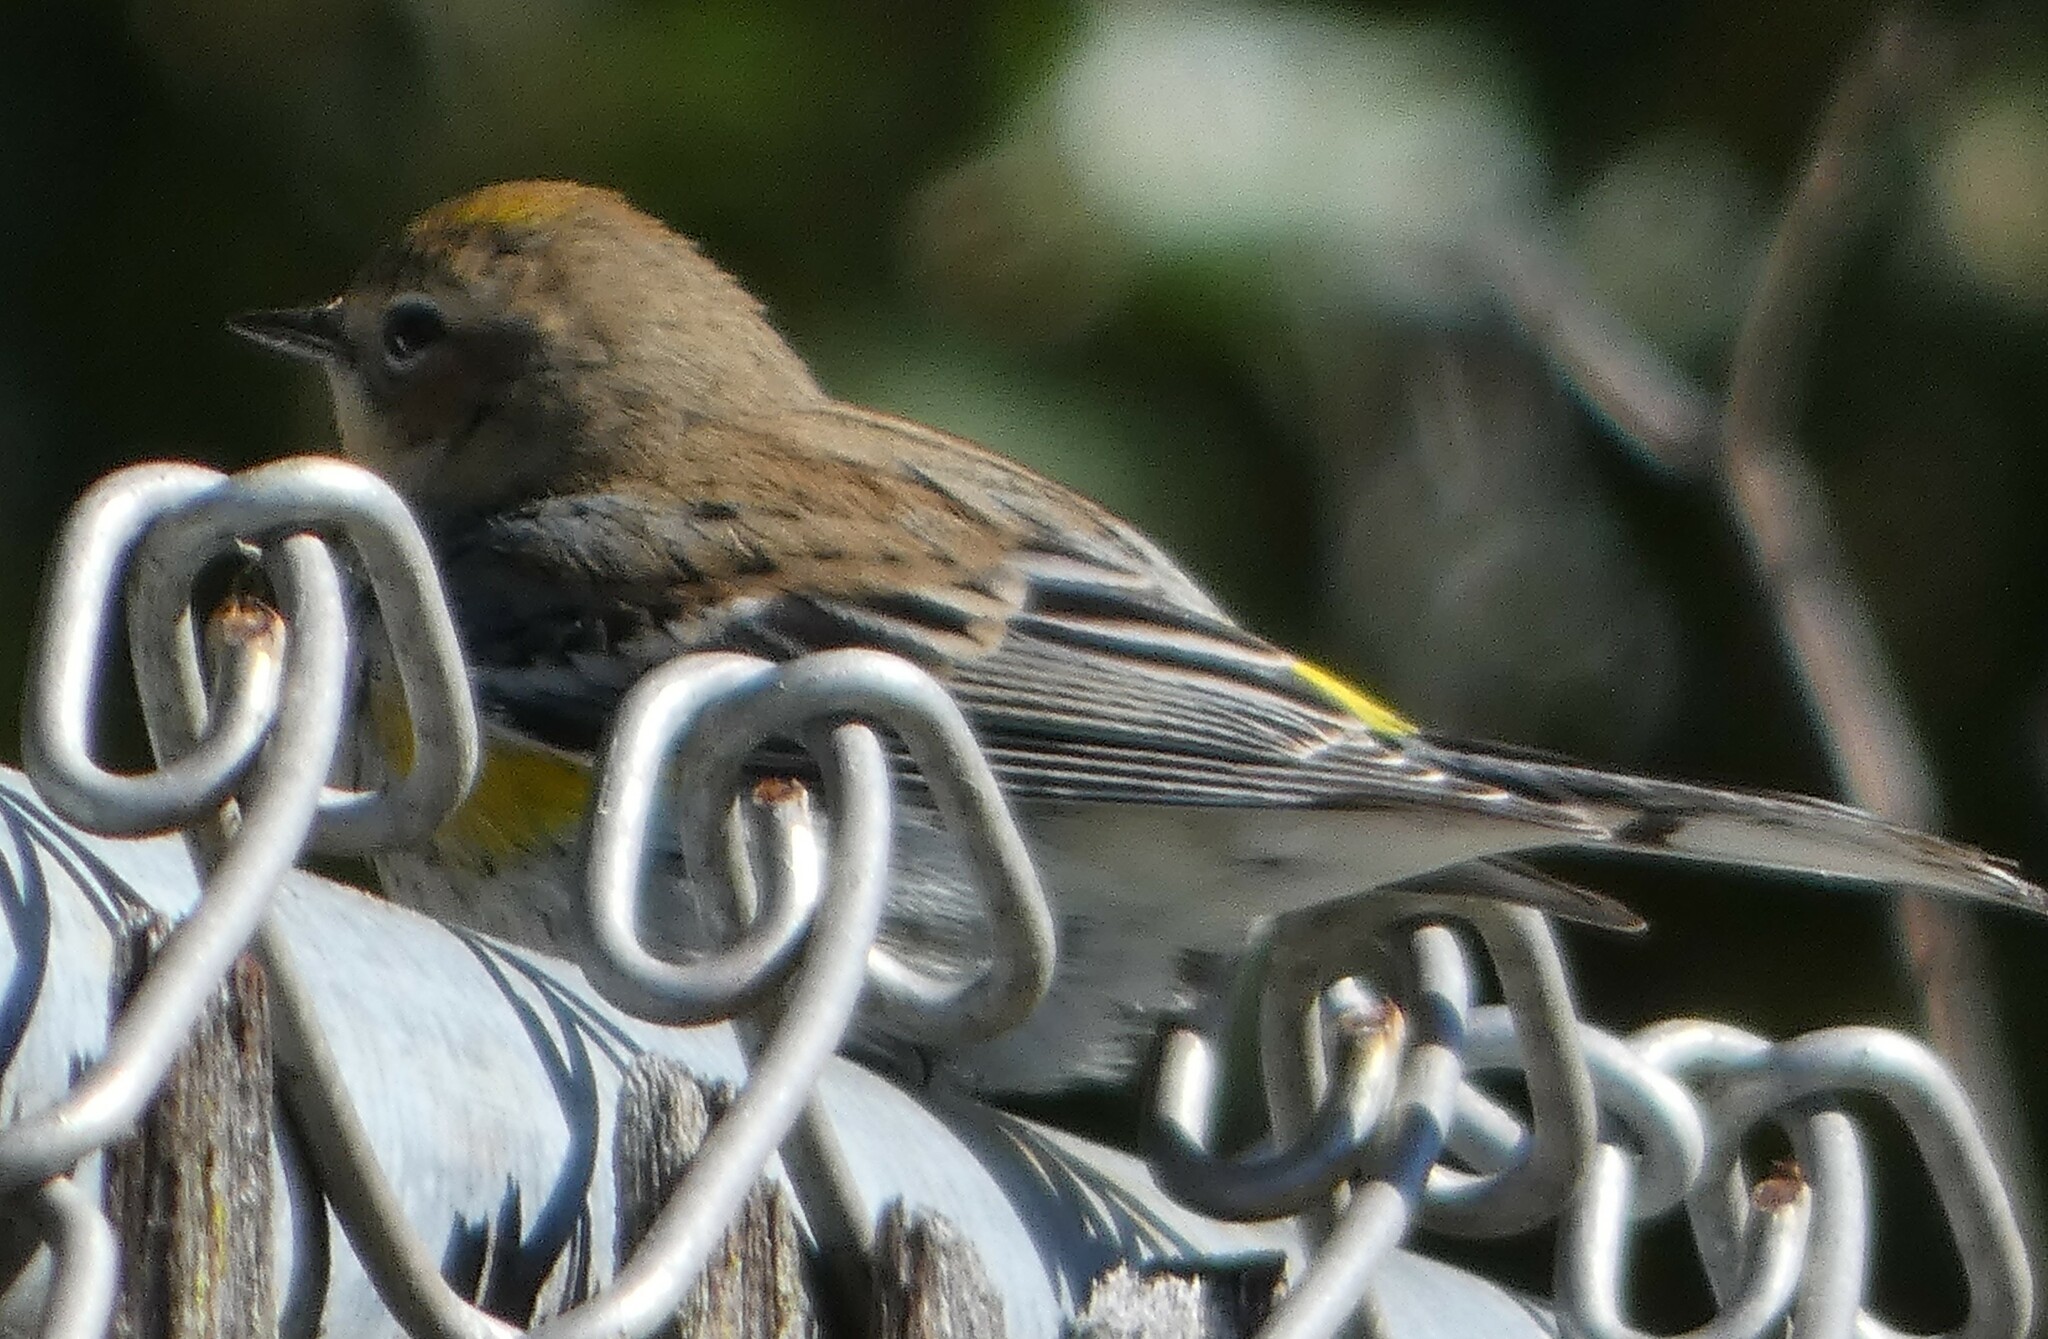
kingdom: Animalia
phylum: Chordata
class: Aves
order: Passeriformes
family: Parulidae
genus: Setophaga
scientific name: Setophaga coronata
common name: Myrtle warbler
